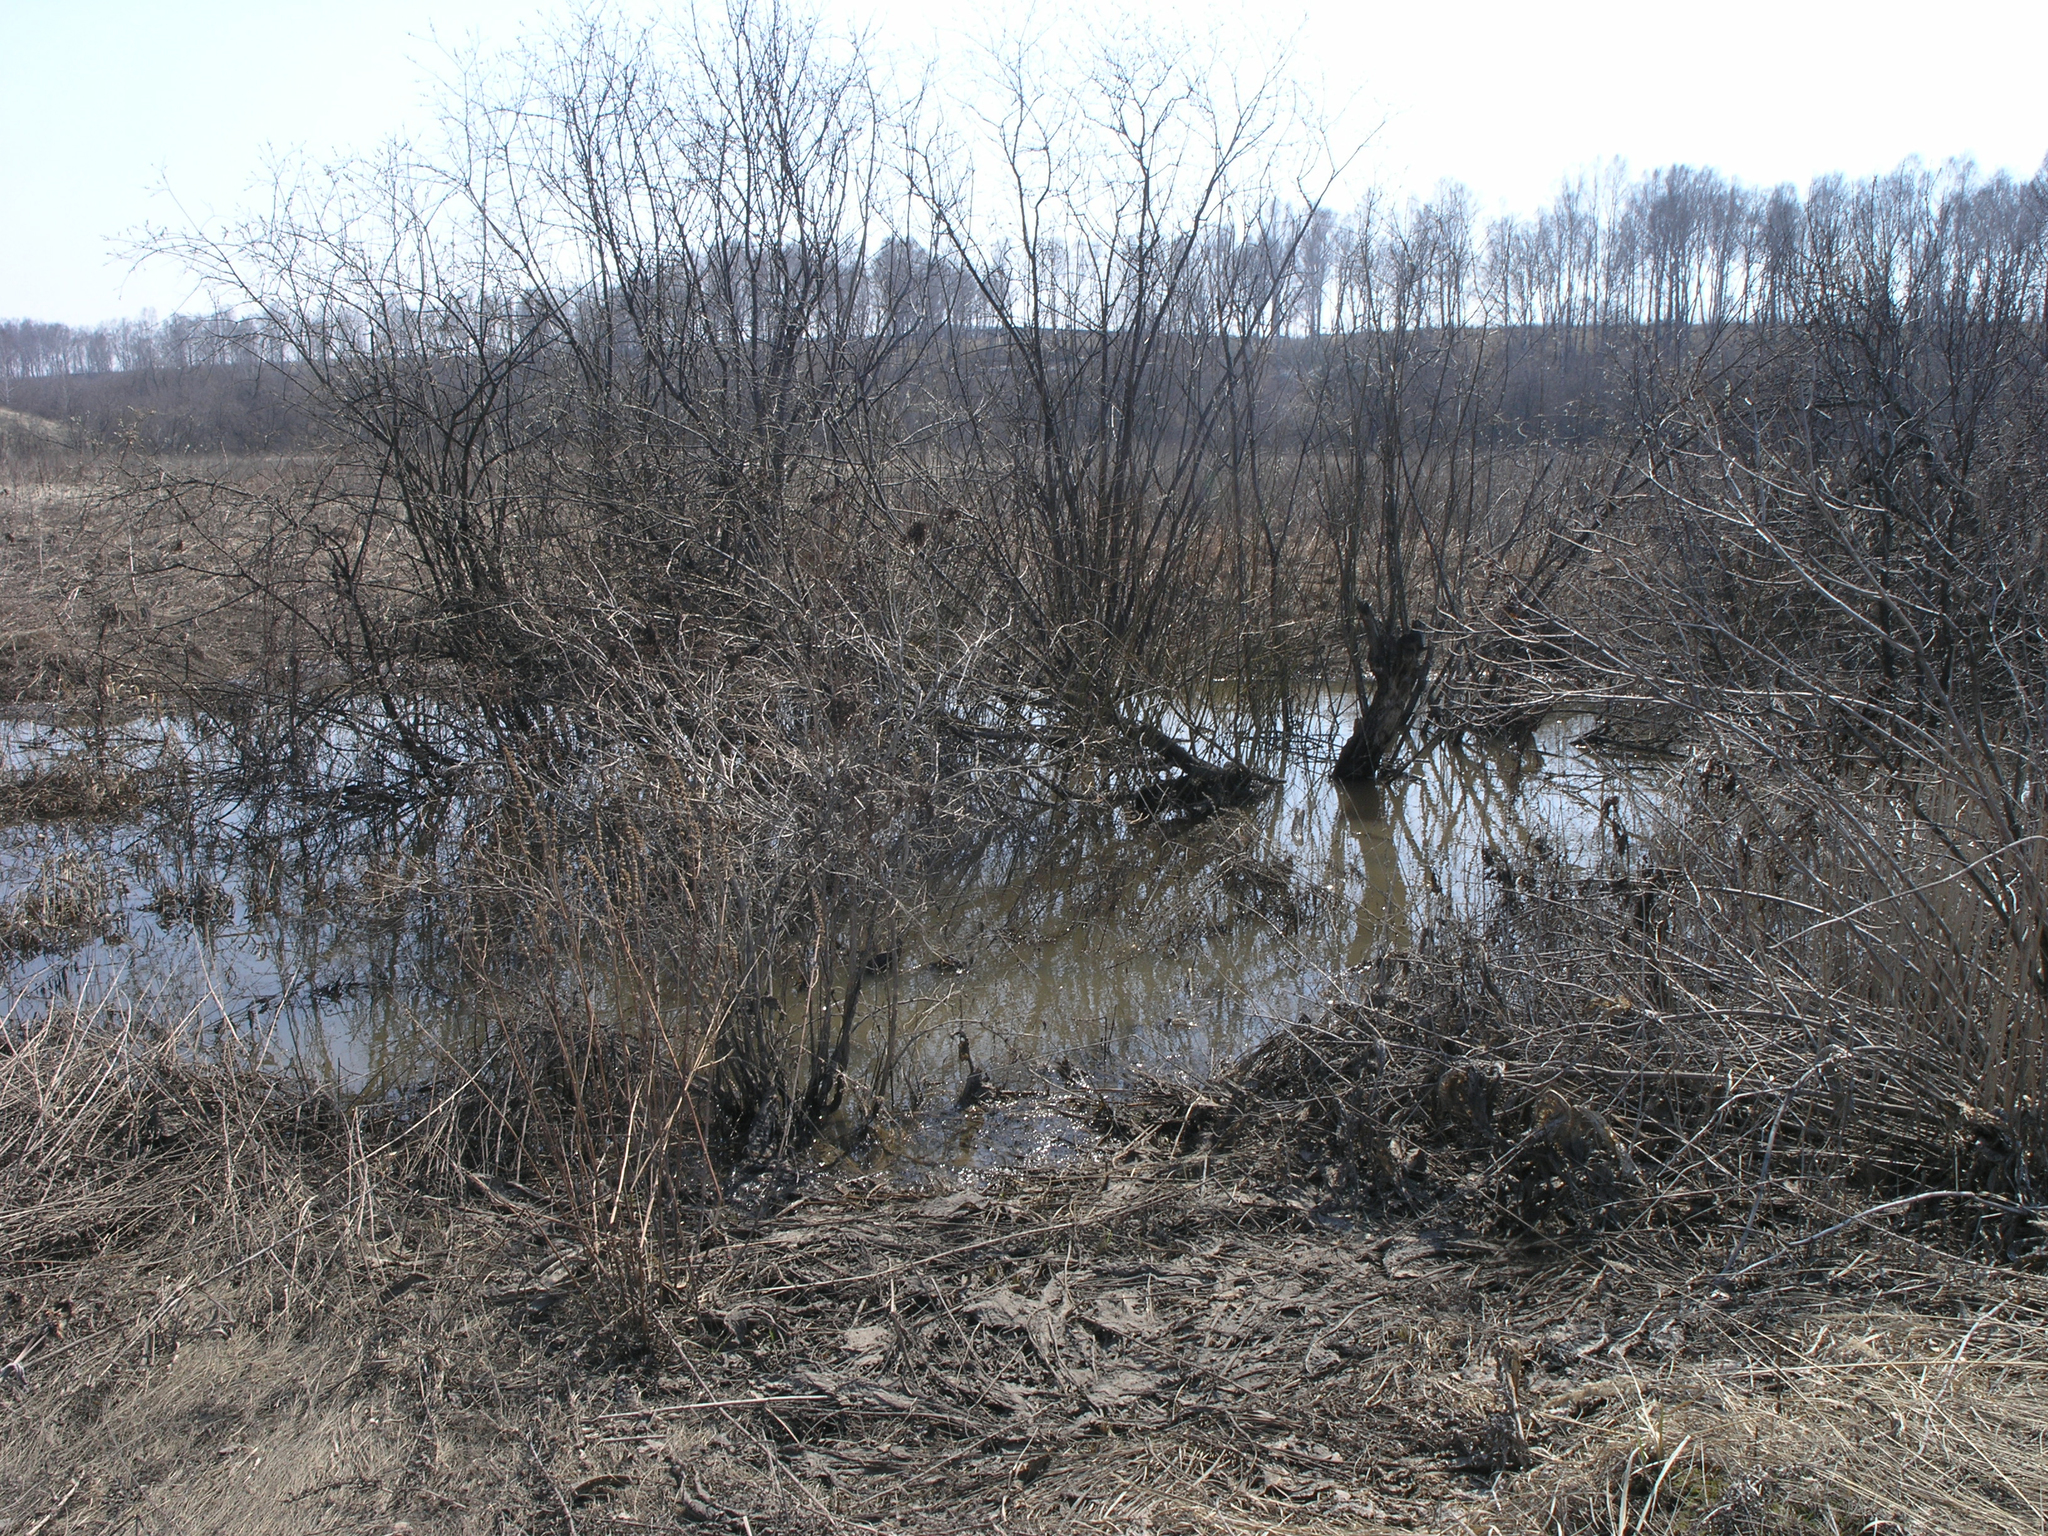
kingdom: Animalia
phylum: Chordata
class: Aves
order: Gruiformes
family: Rallidae
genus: Porzana
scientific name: Porzana pusilla
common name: Baillon's crake
